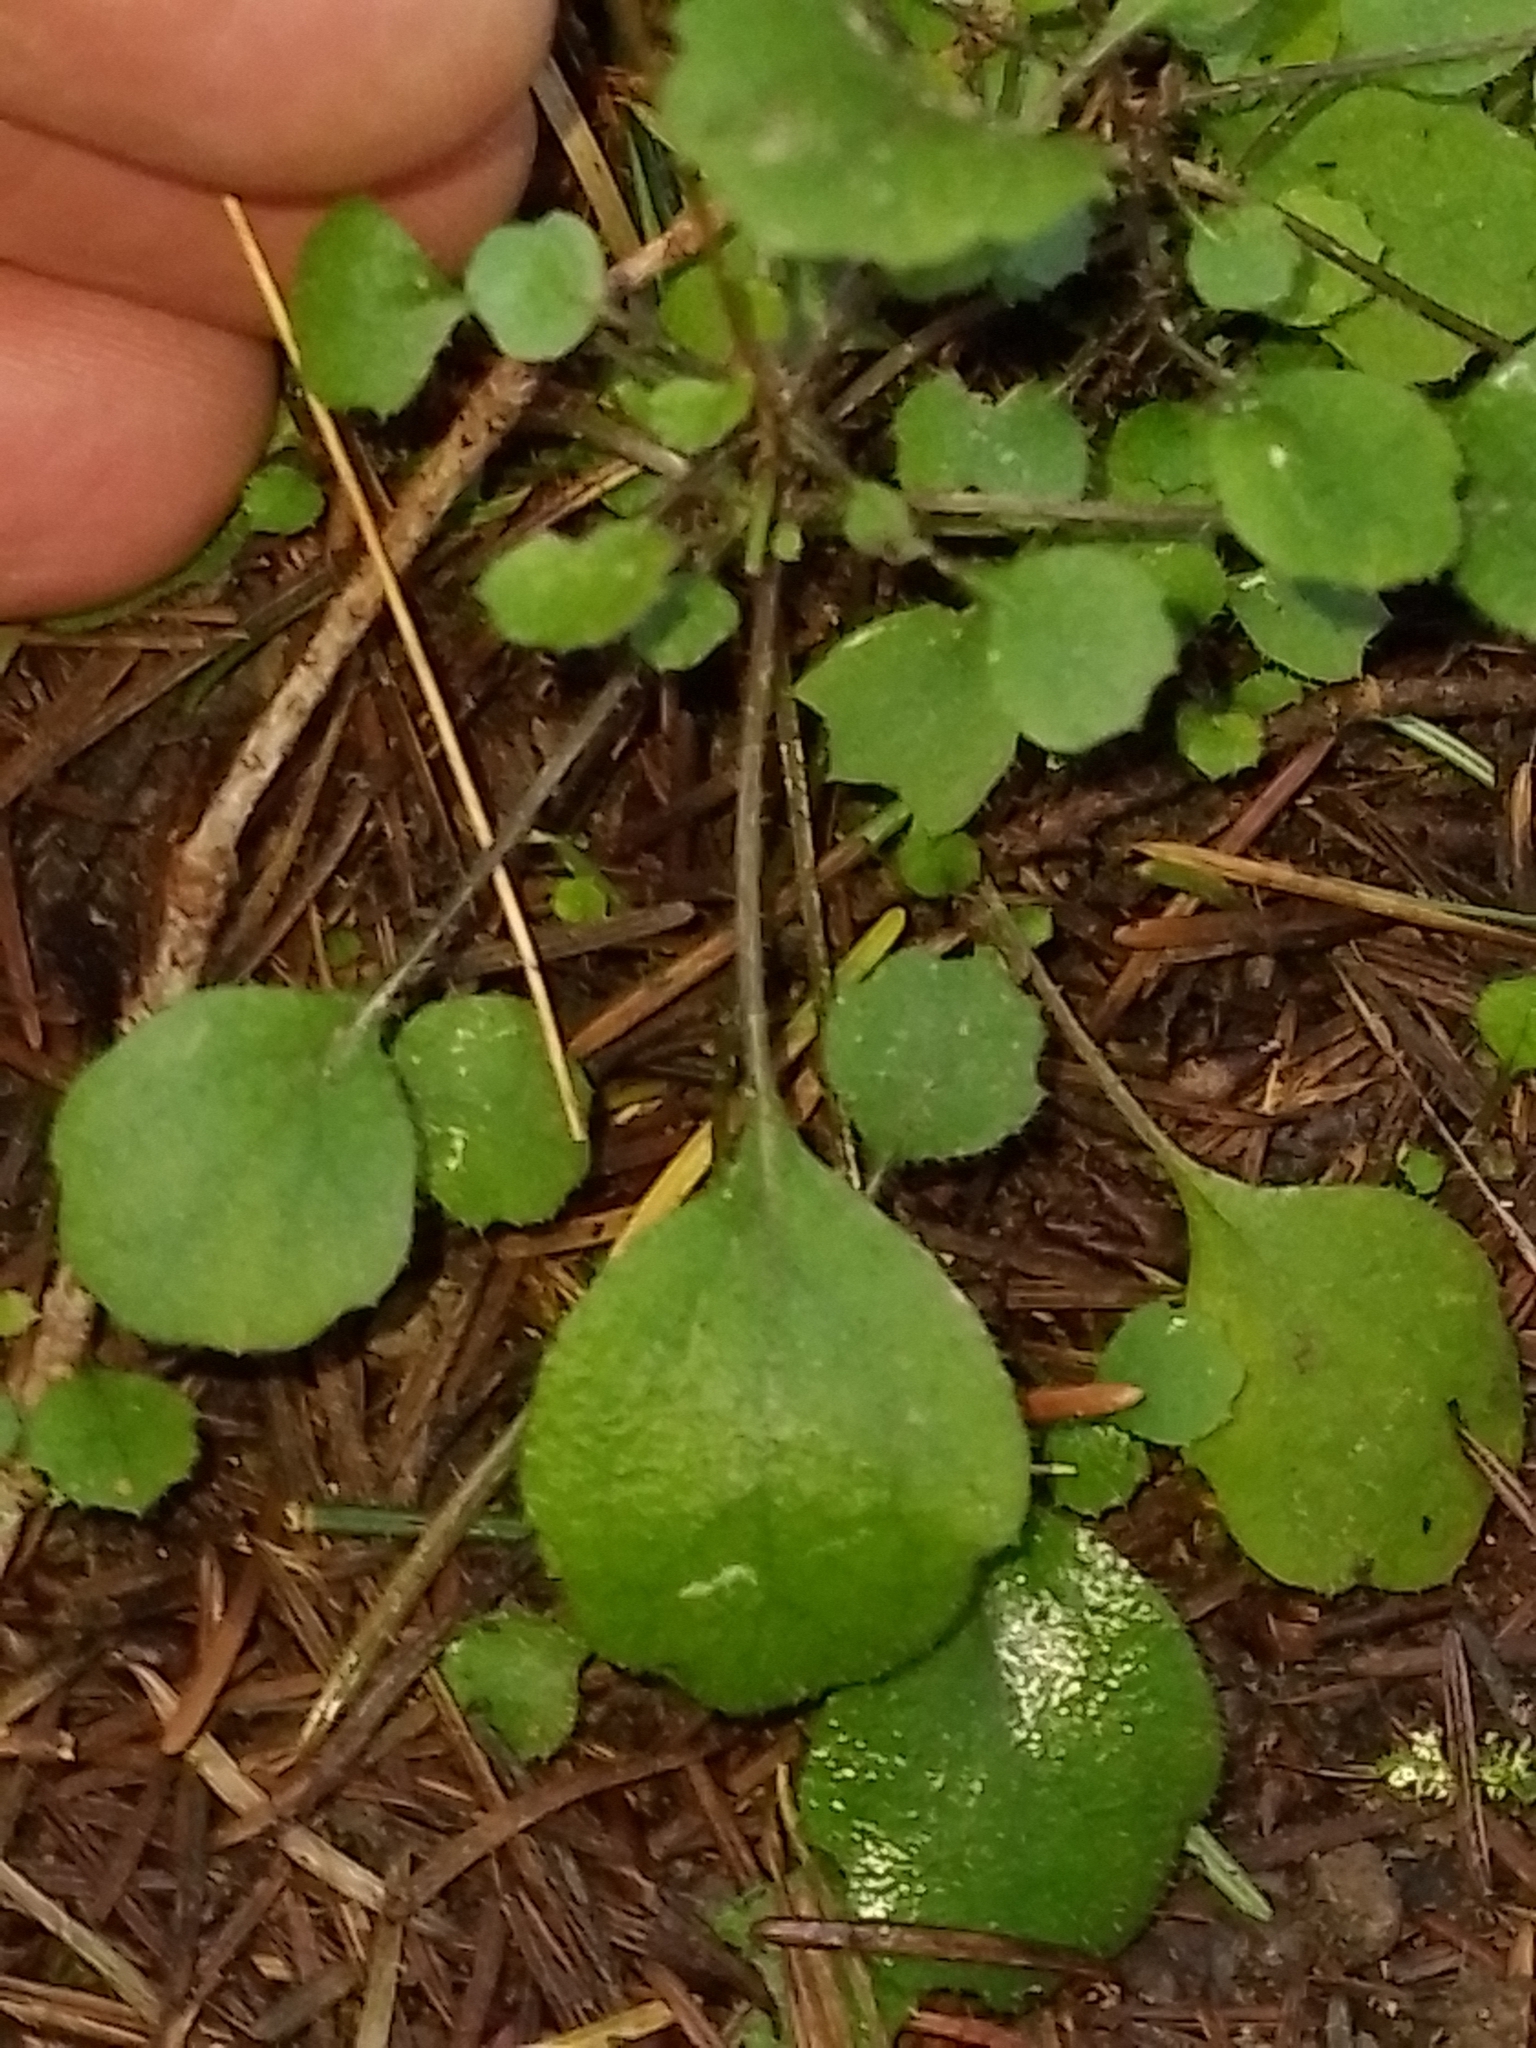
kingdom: Plantae
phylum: Tracheophyta
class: Magnoliopsida
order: Asterales
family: Asteraceae
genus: Lagenophora
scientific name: Lagenophora strangulata
